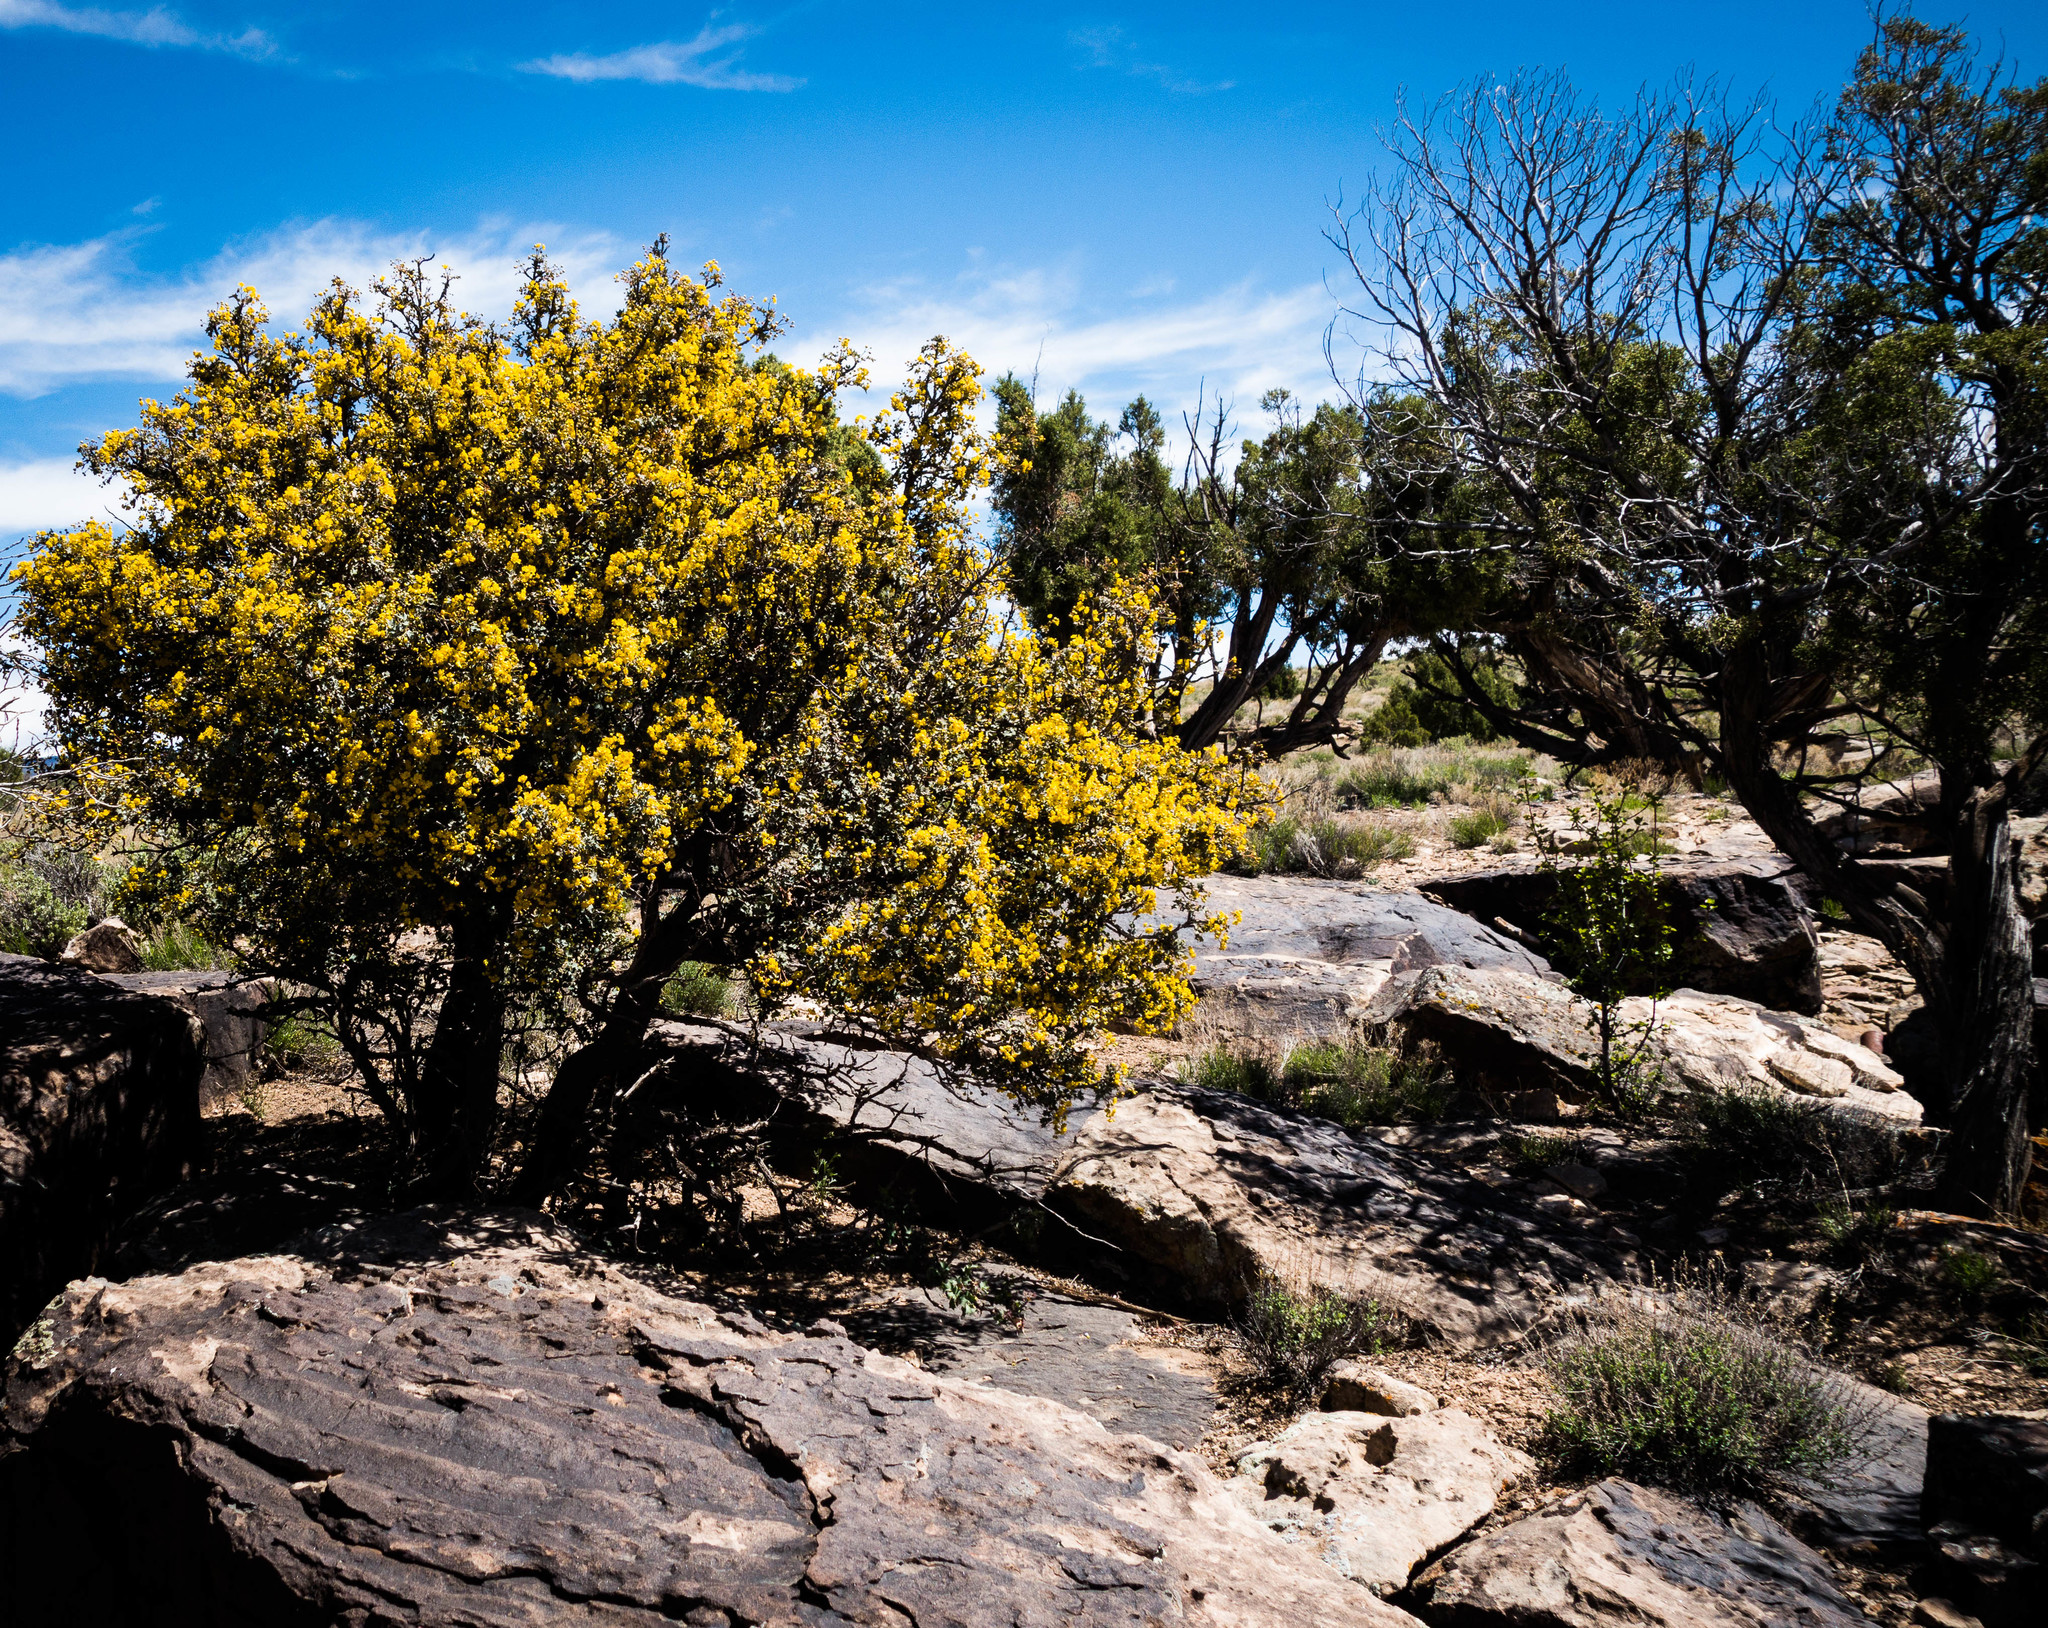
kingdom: Plantae
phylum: Tracheophyta
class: Magnoliopsida
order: Ranunculales
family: Berberidaceae
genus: Alloberberis
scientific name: Alloberberis fremontii
